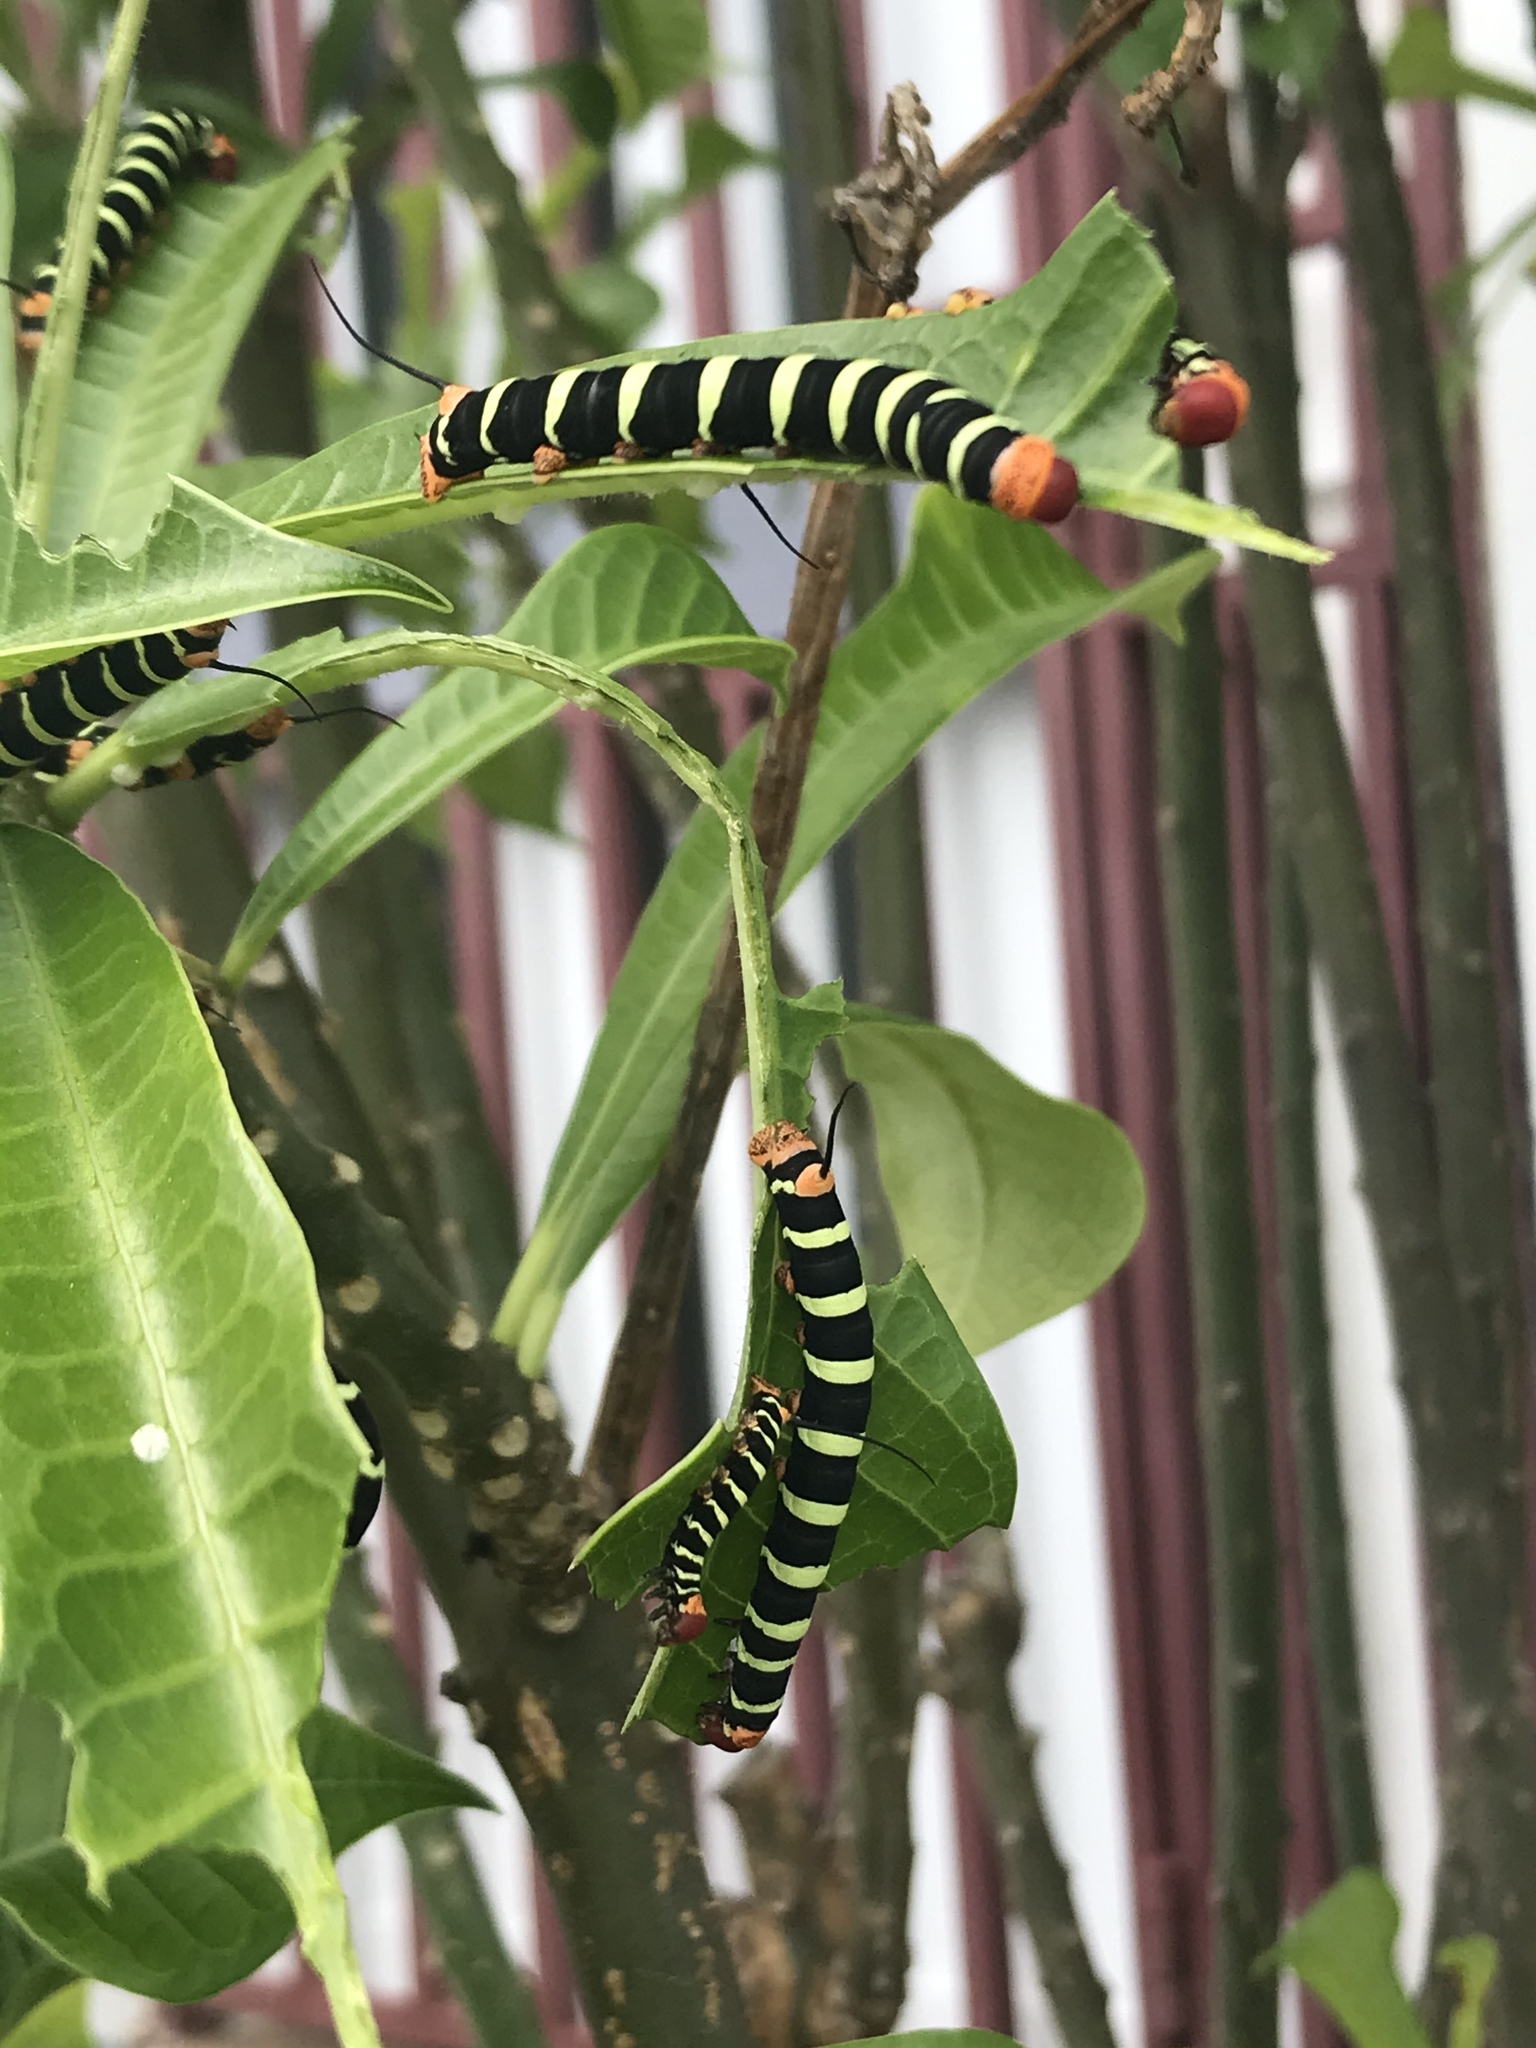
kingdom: Animalia
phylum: Arthropoda
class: Insecta
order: Lepidoptera
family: Sphingidae
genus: Pseudosphinx
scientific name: Pseudosphinx tetrio
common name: Tetrio sphinx
